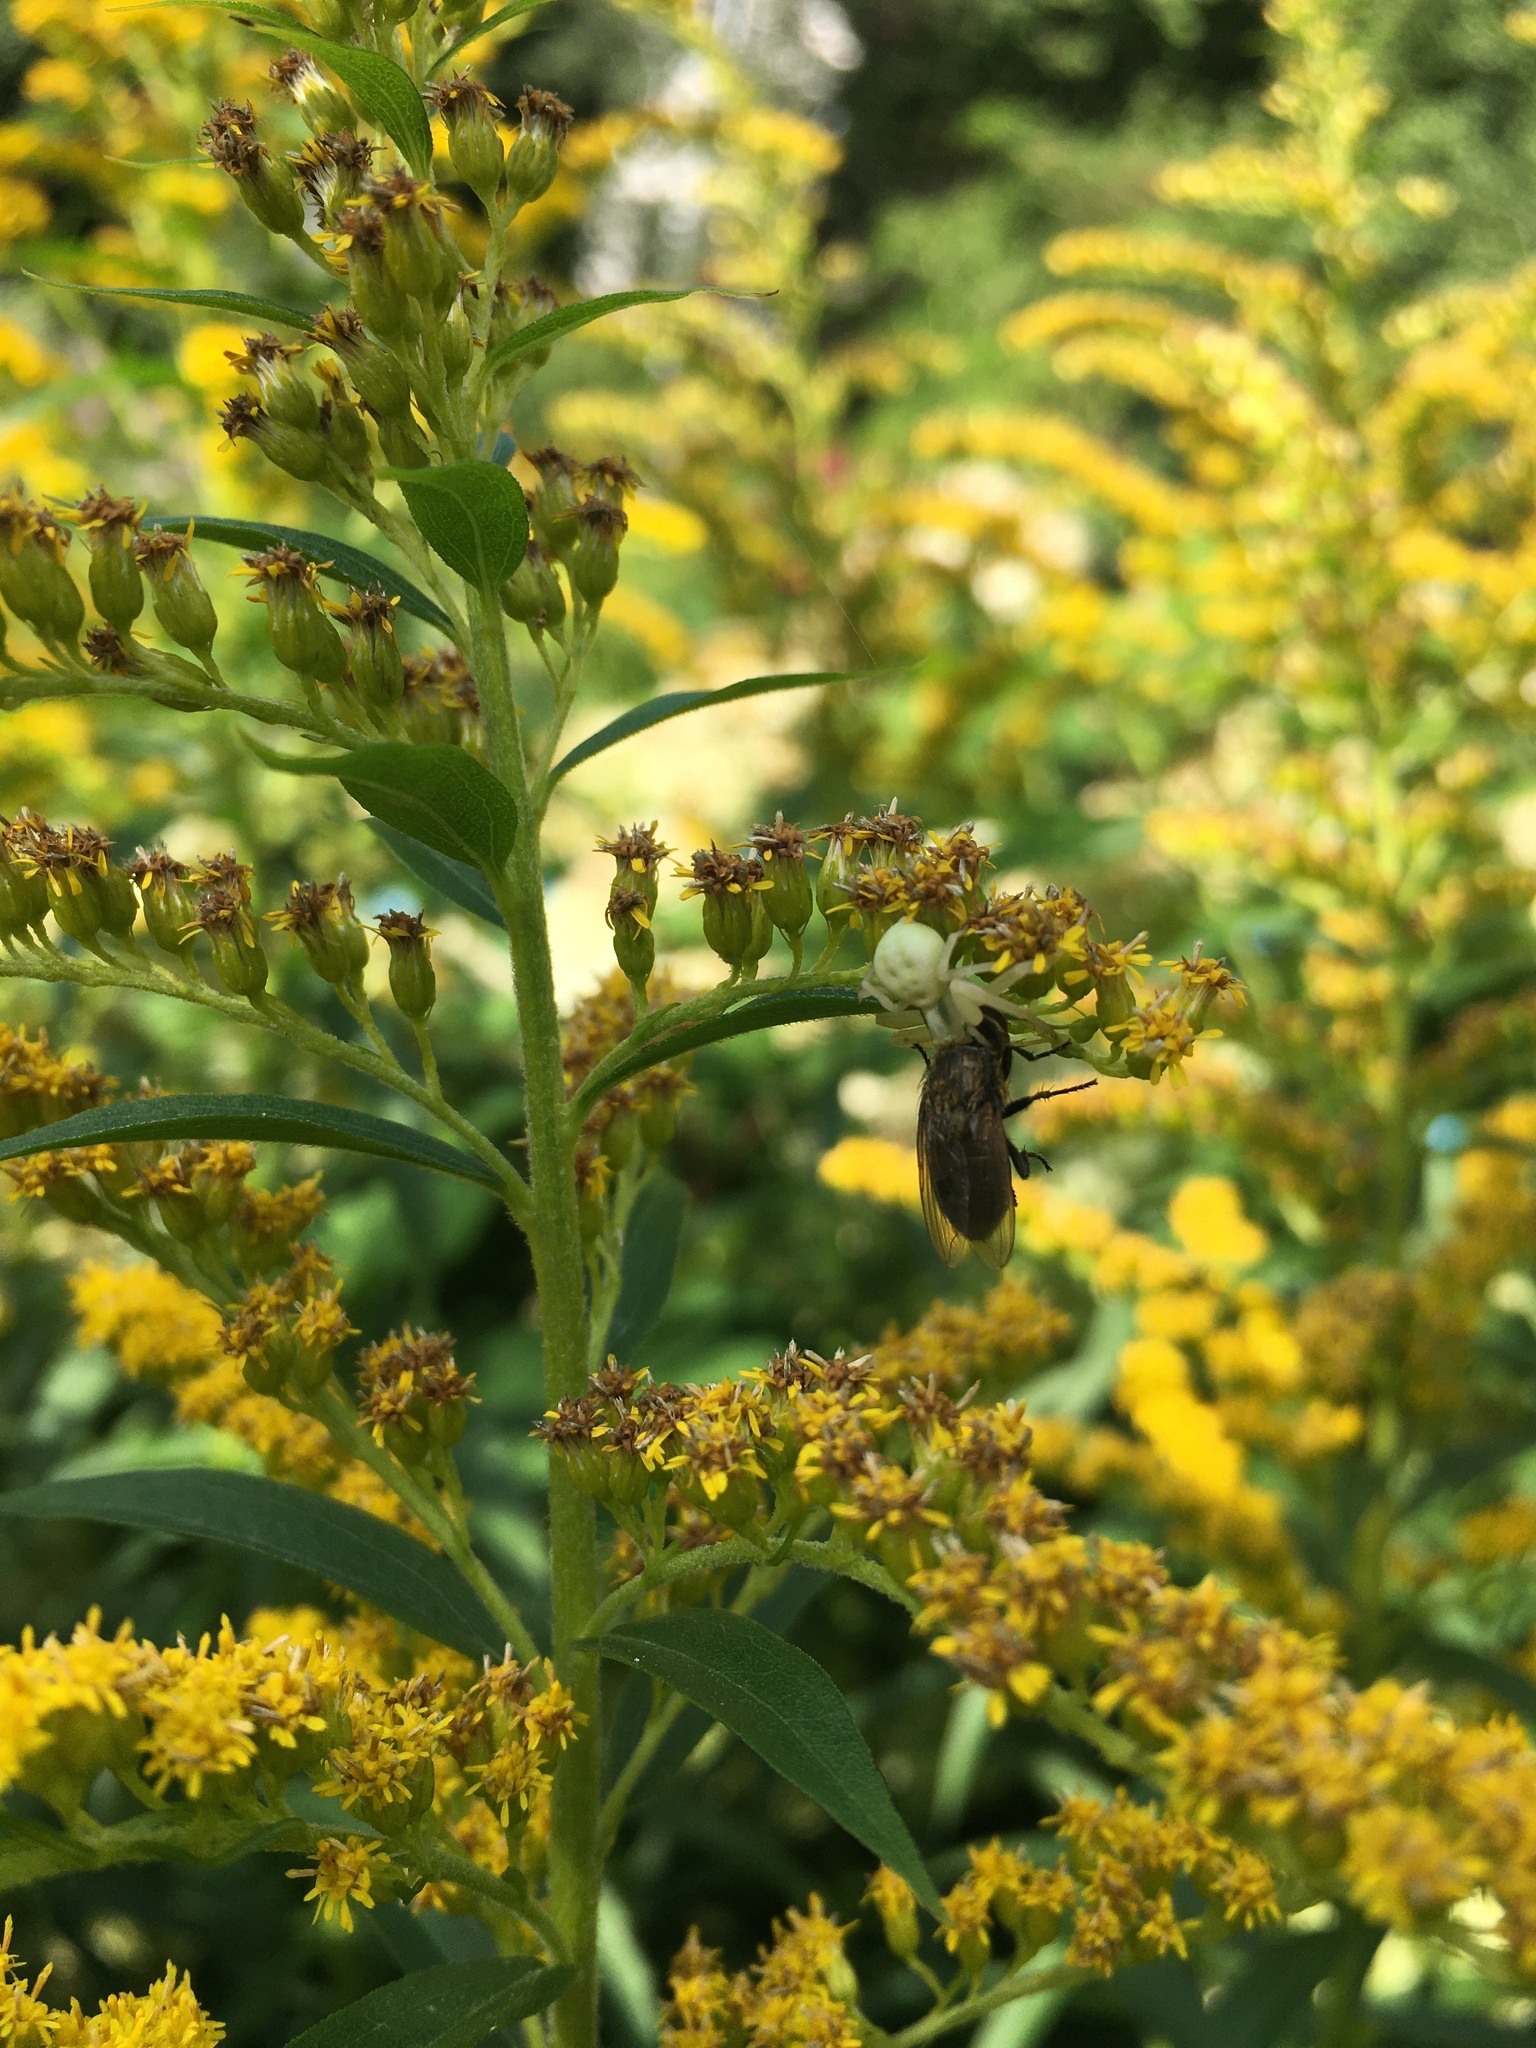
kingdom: Animalia
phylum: Arthropoda
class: Arachnida
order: Araneae
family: Thomisidae
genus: Misumena
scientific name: Misumena vatia
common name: Goldenrod crab spider
